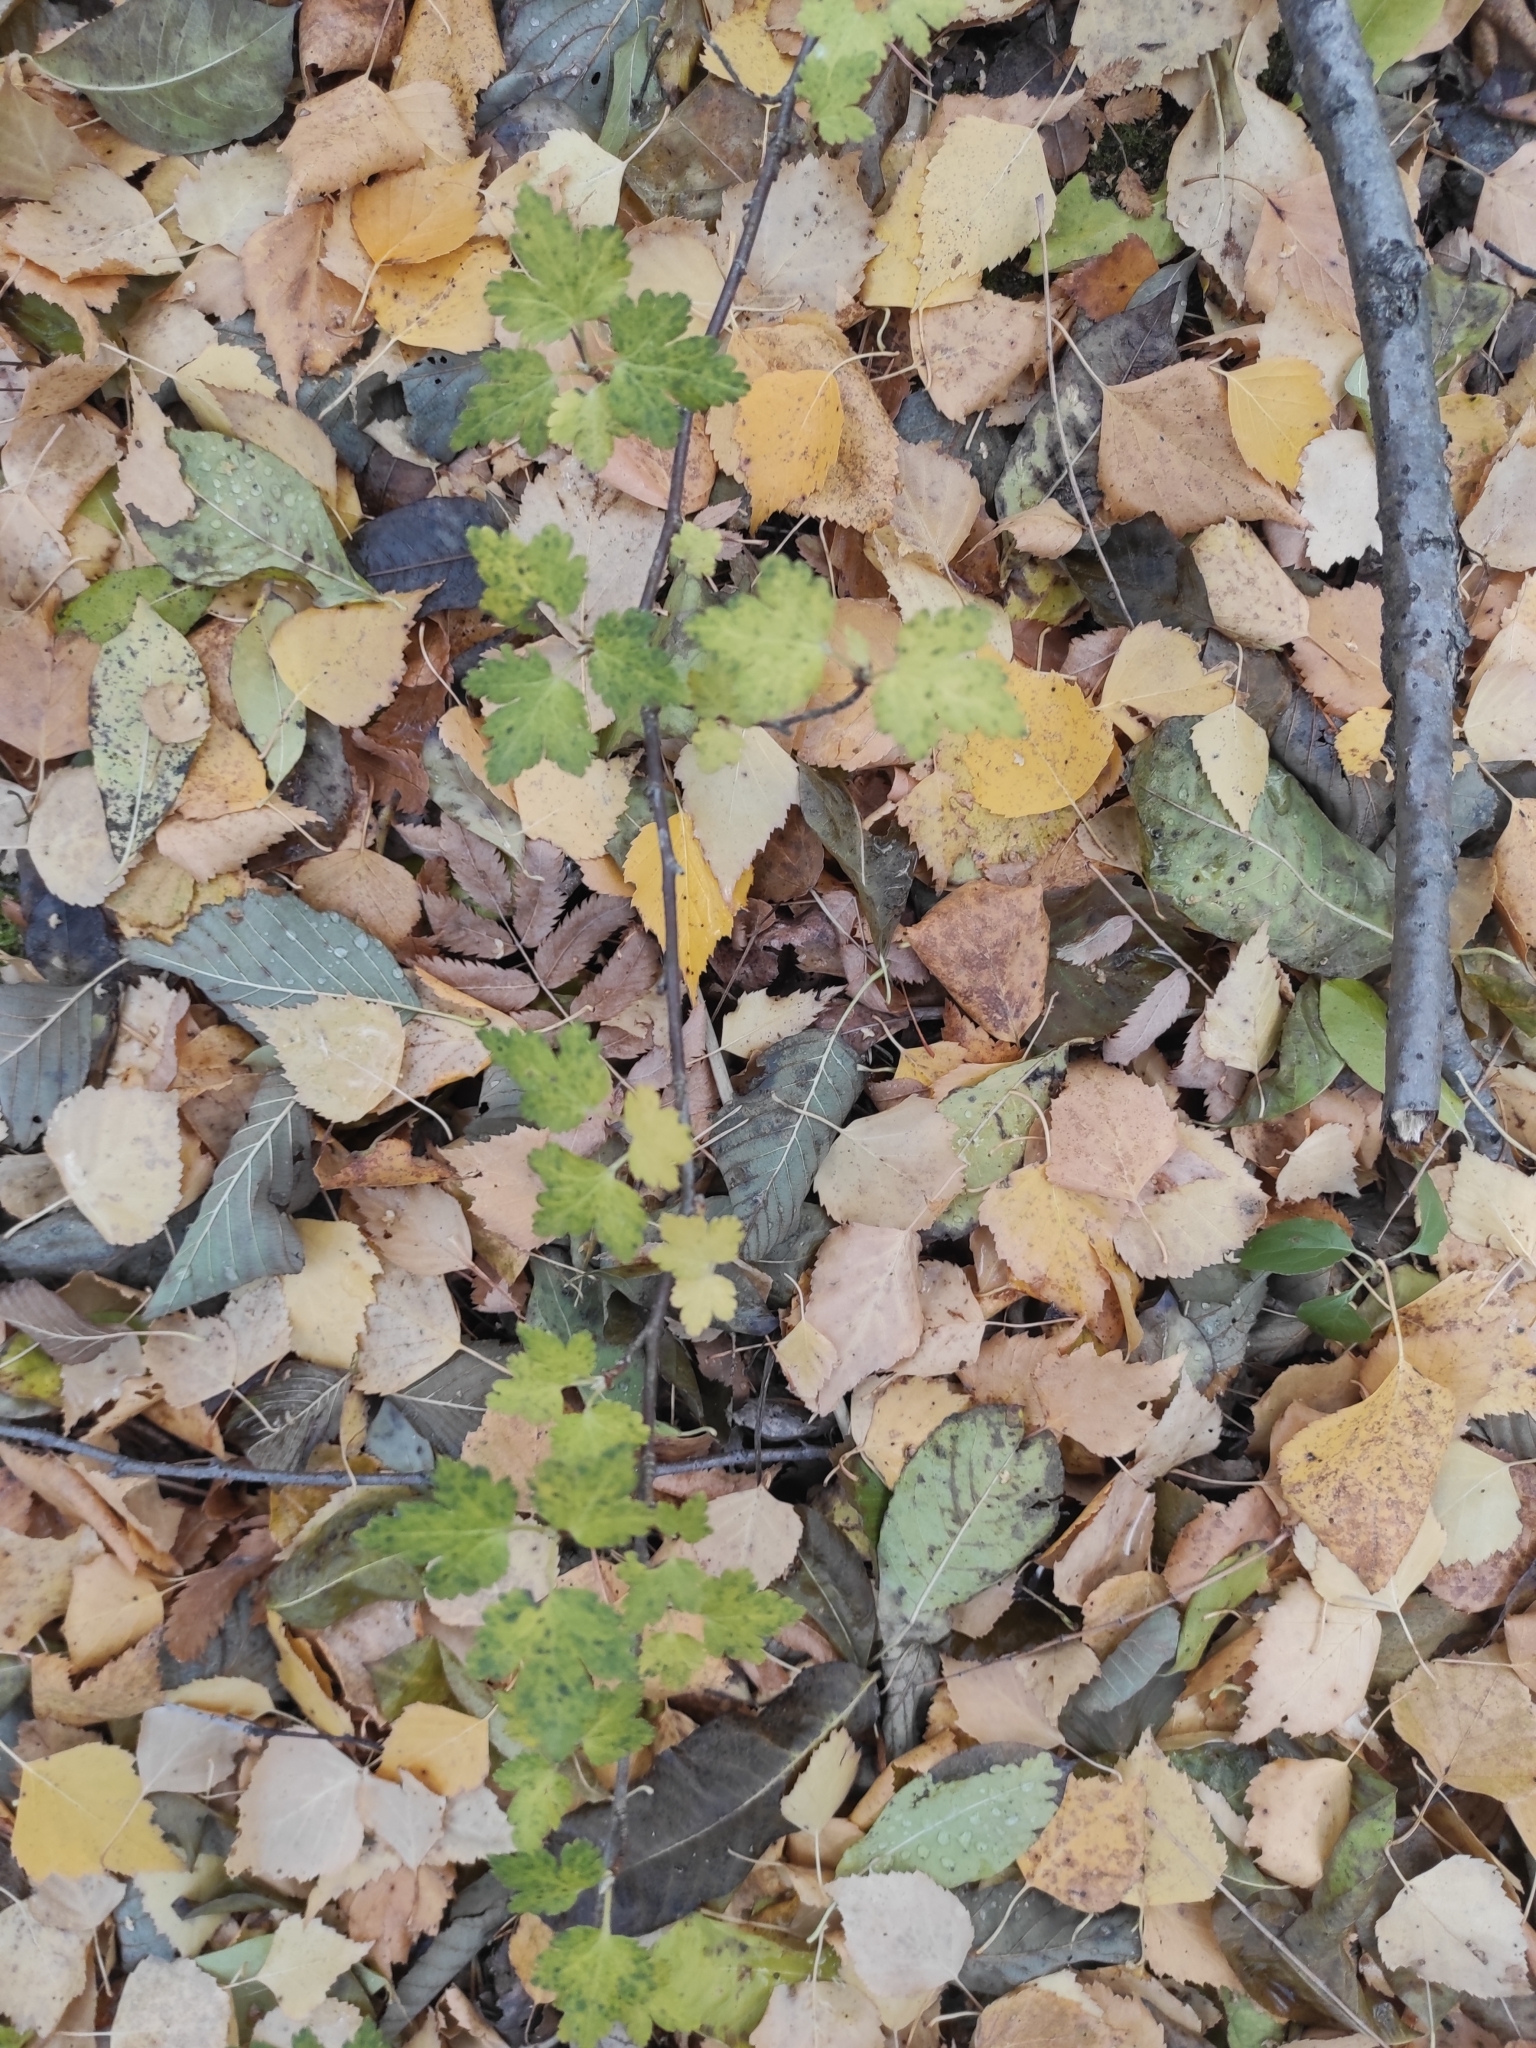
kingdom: Plantae
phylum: Tracheophyta
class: Magnoliopsida
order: Saxifragales
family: Grossulariaceae
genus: Ribes
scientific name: Ribes
